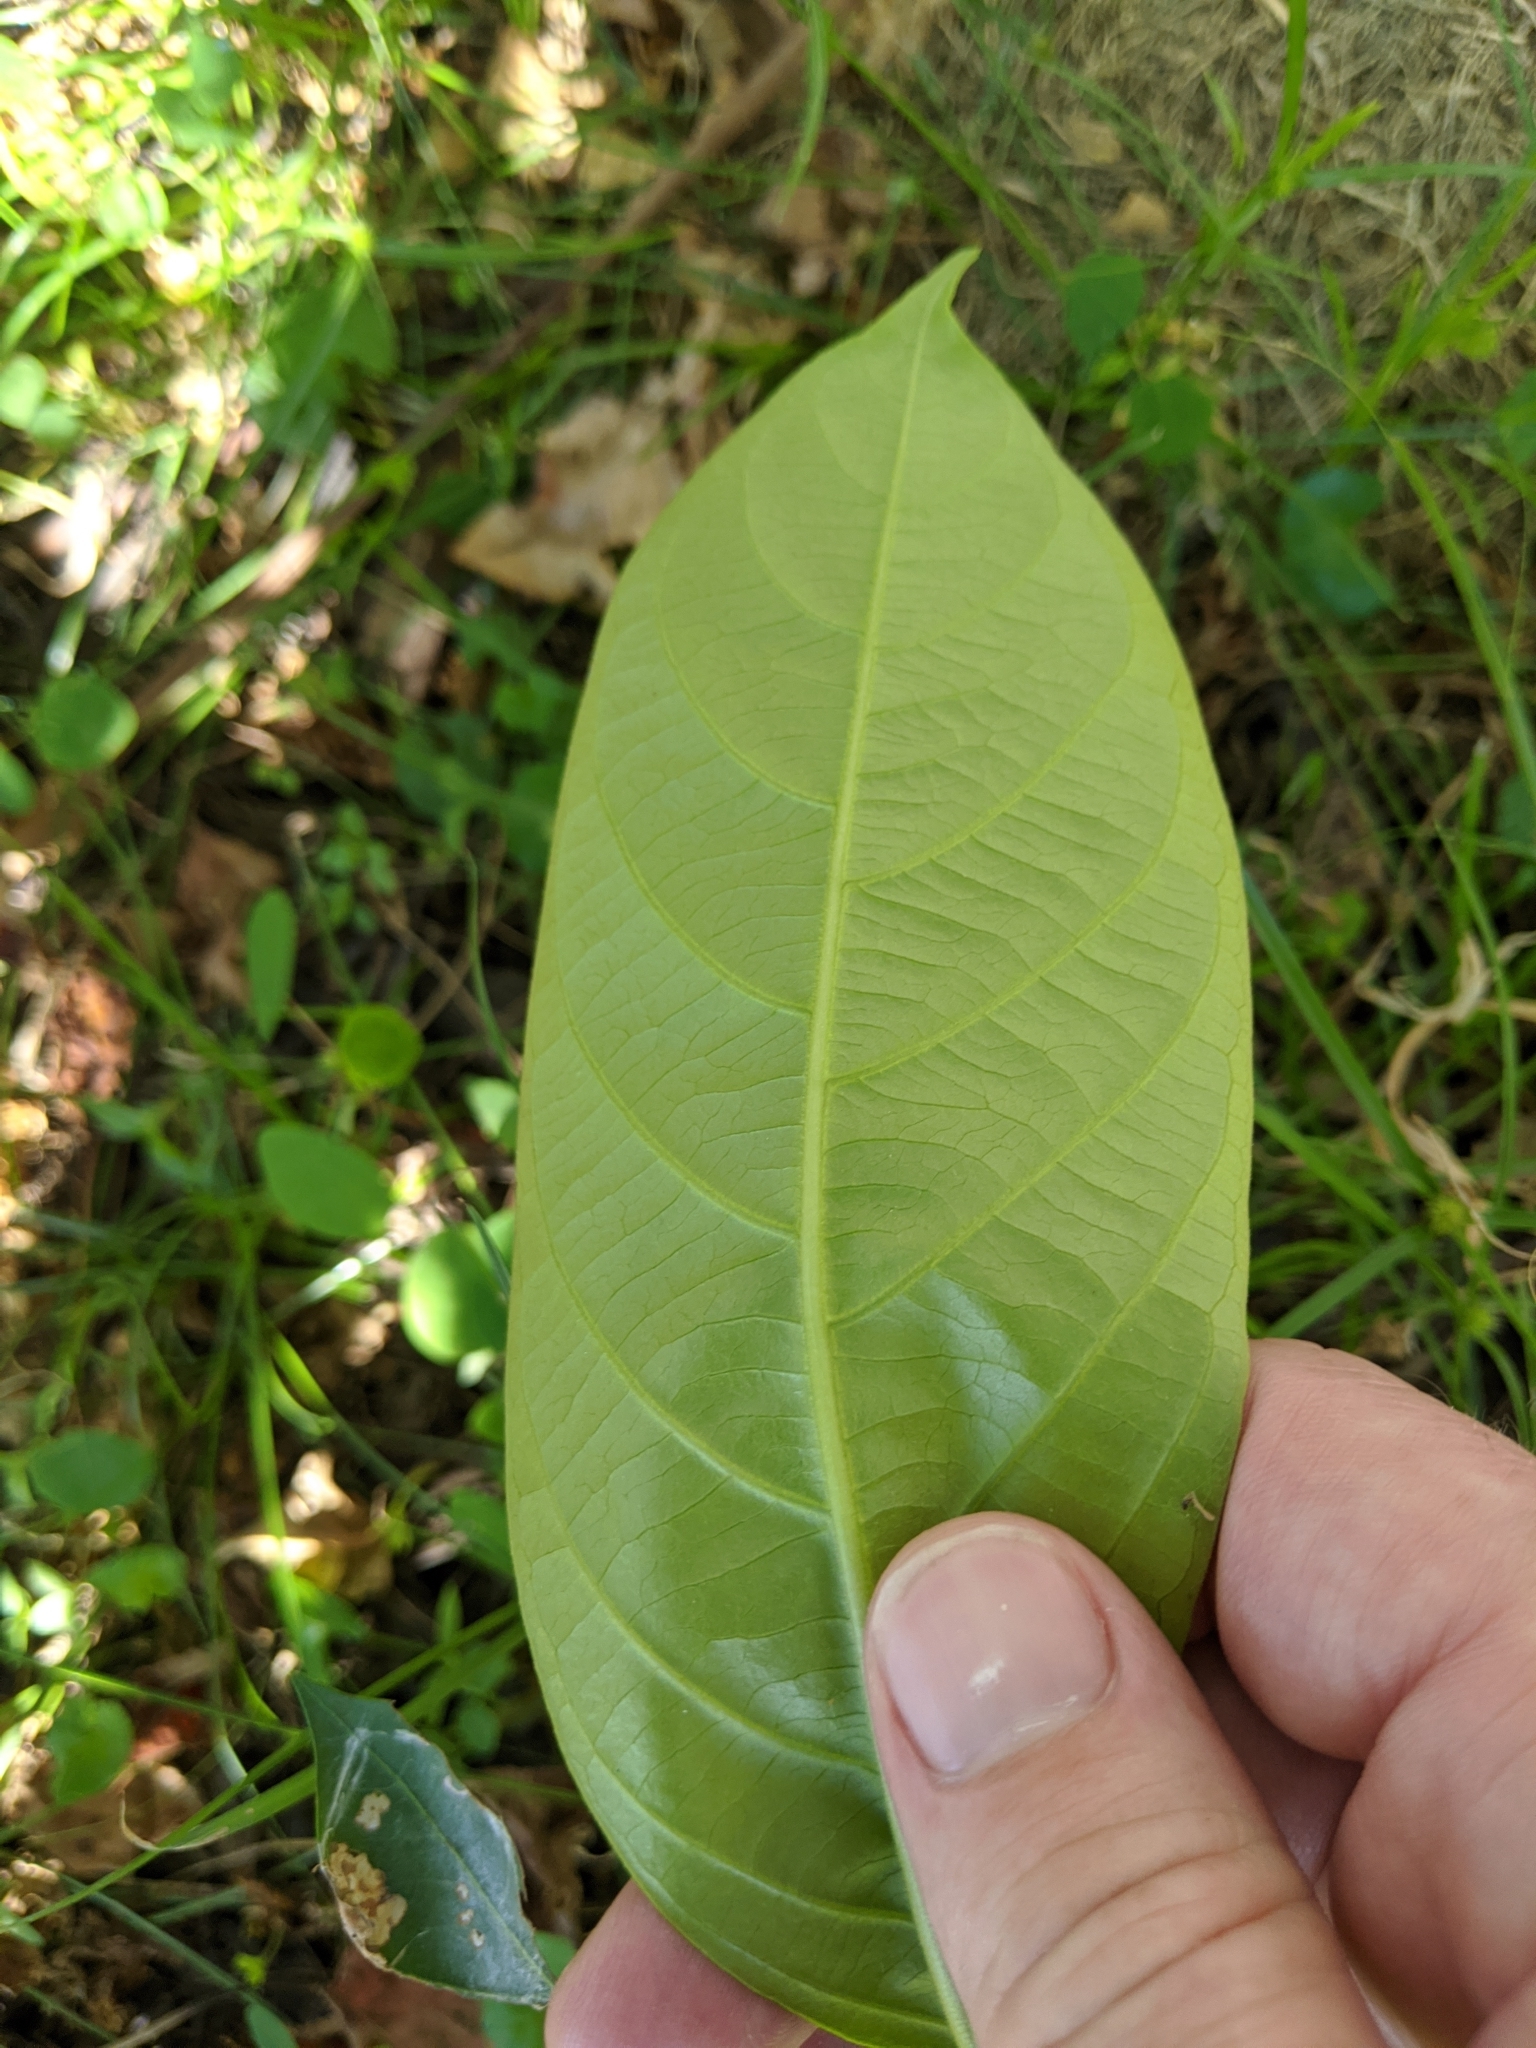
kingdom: Plantae
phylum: Tracheophyta
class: Magnoliopsida
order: Malpighiales
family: Phyllanthaceae
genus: Glochidion
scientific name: Glochidion zeylanicum
